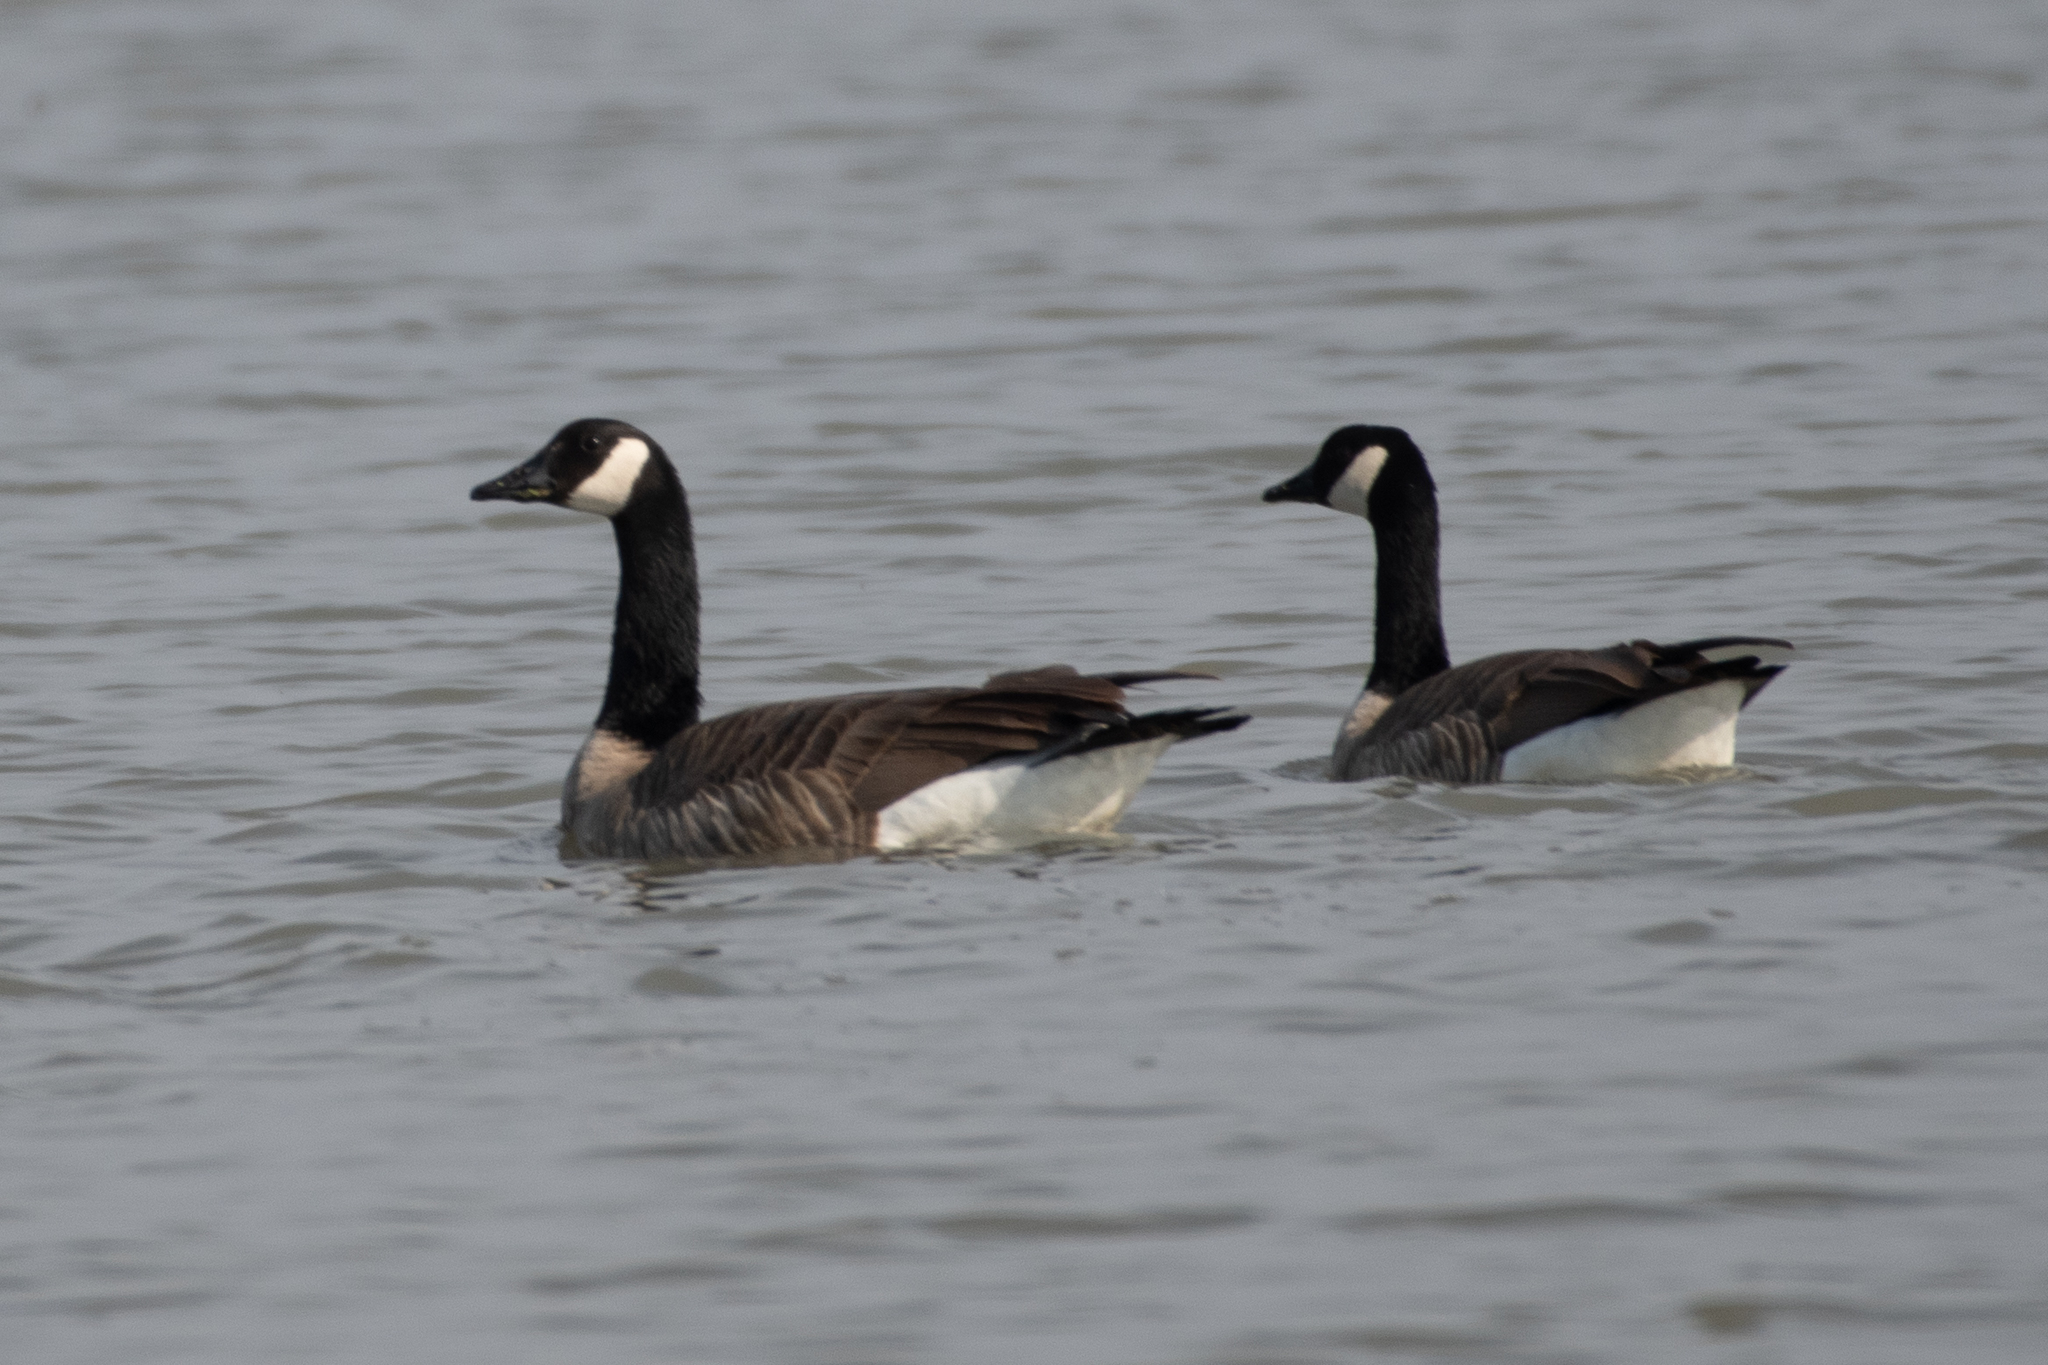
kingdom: Animalia
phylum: Chordata
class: Aves
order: Anseriformes
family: Anatidae
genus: Branta
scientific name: Branta canadensis
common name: Canada goose
